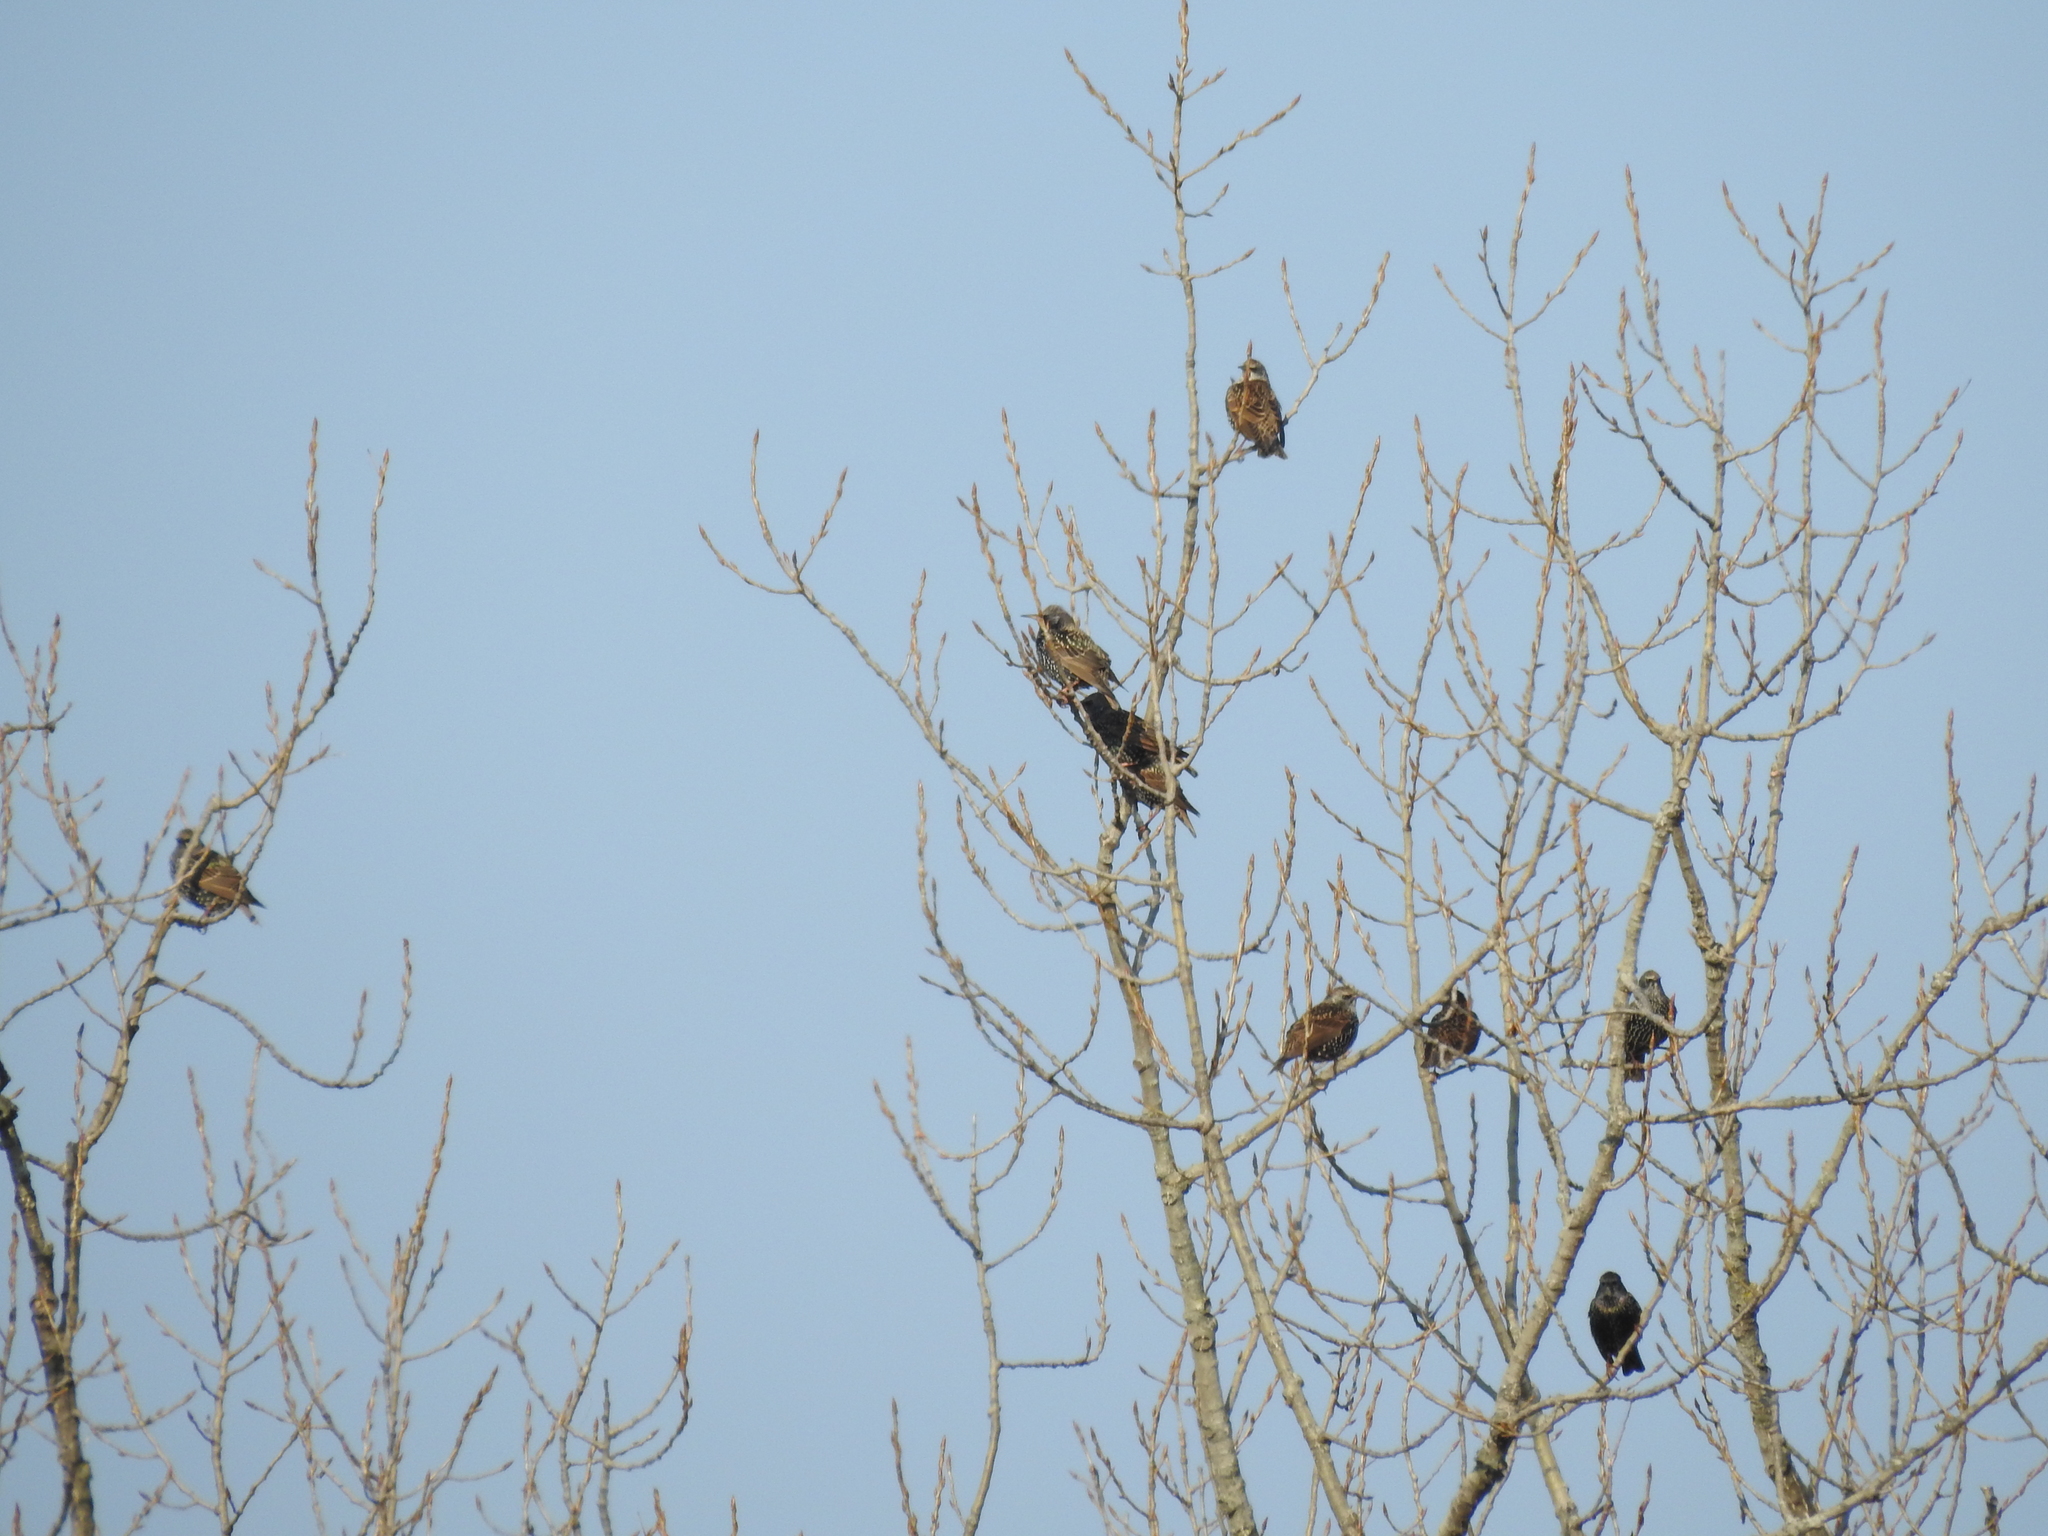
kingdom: Animalia
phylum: Chordata
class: Aves
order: Passeriformes
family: Sturnidae
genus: Sturnus
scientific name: Sturnus vulgaris
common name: Common starling
